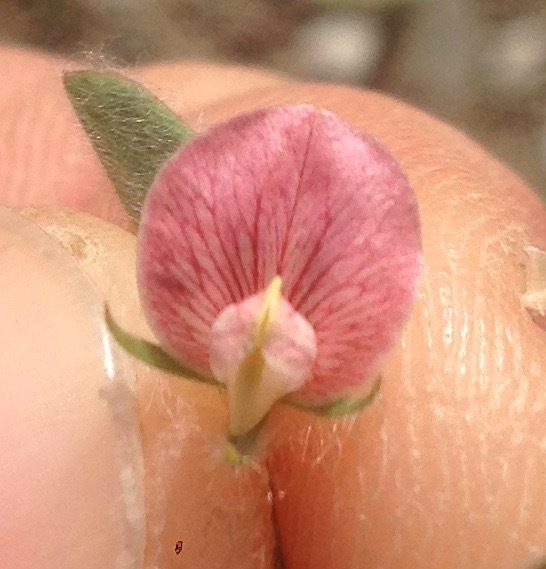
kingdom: Plantae
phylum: Tracheophyta
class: Magnoliopsida
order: Fabales
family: Fabaceae
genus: Acmispon
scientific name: Acmispon americanus
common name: American bird's-foot trefoil
